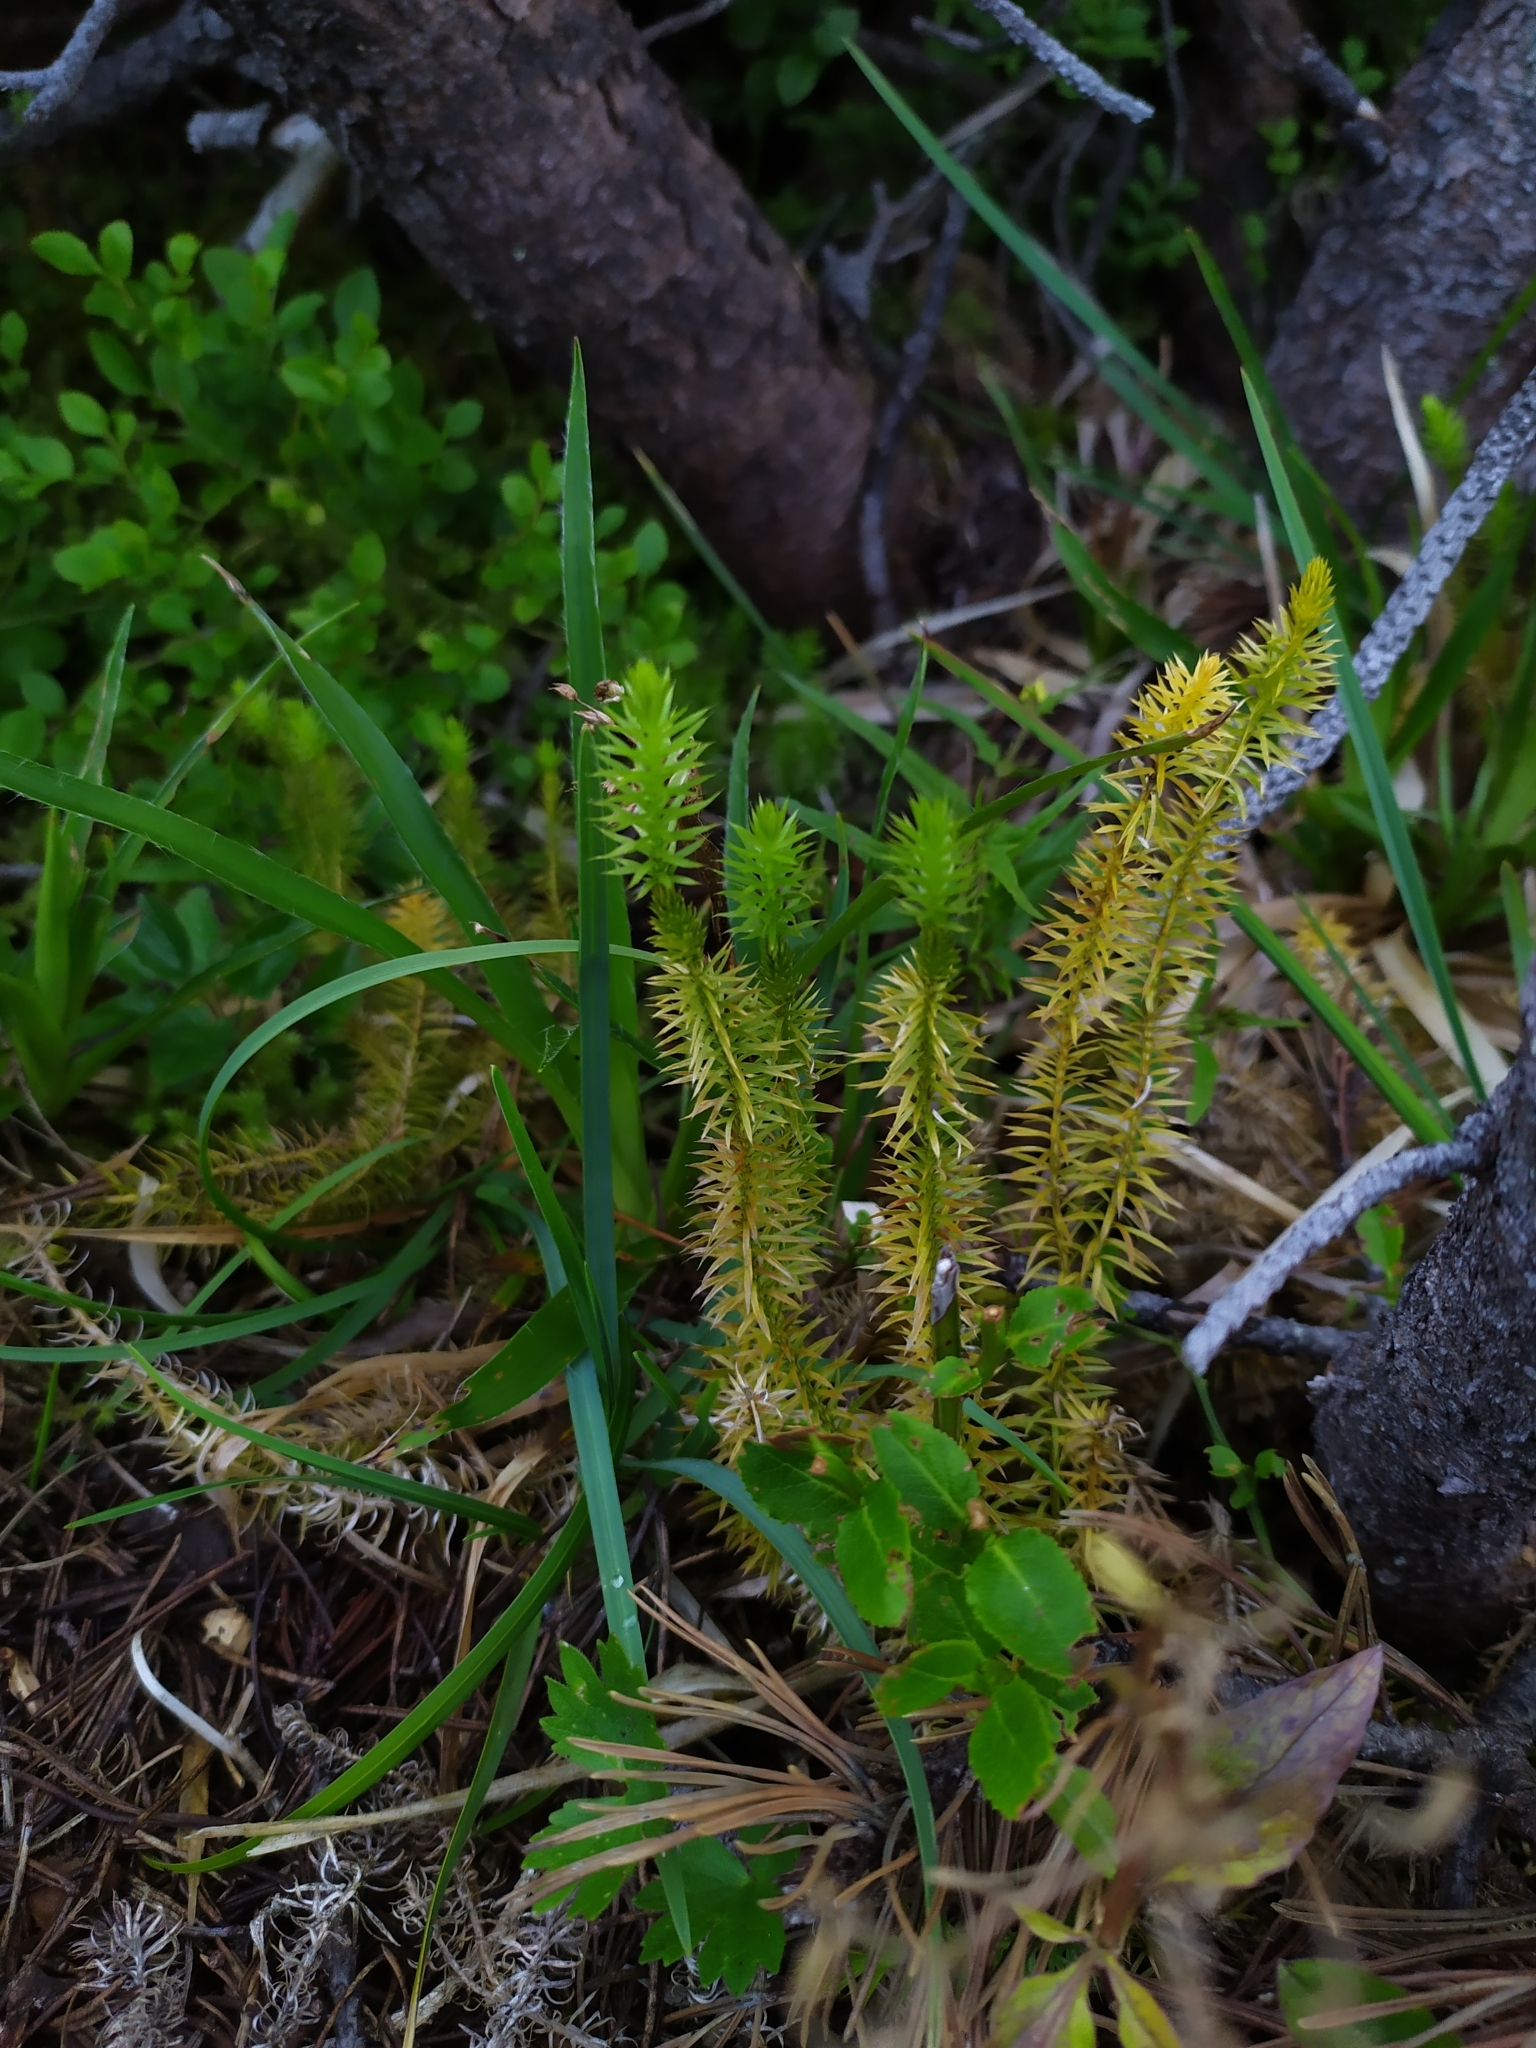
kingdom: Plantae
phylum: Tracheophyta
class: Lycopodiopsida
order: Lycopodiales
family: Lycopodiaceae
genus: Spinulum
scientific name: Spinulum annotinum
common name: Interrupted club-moss
